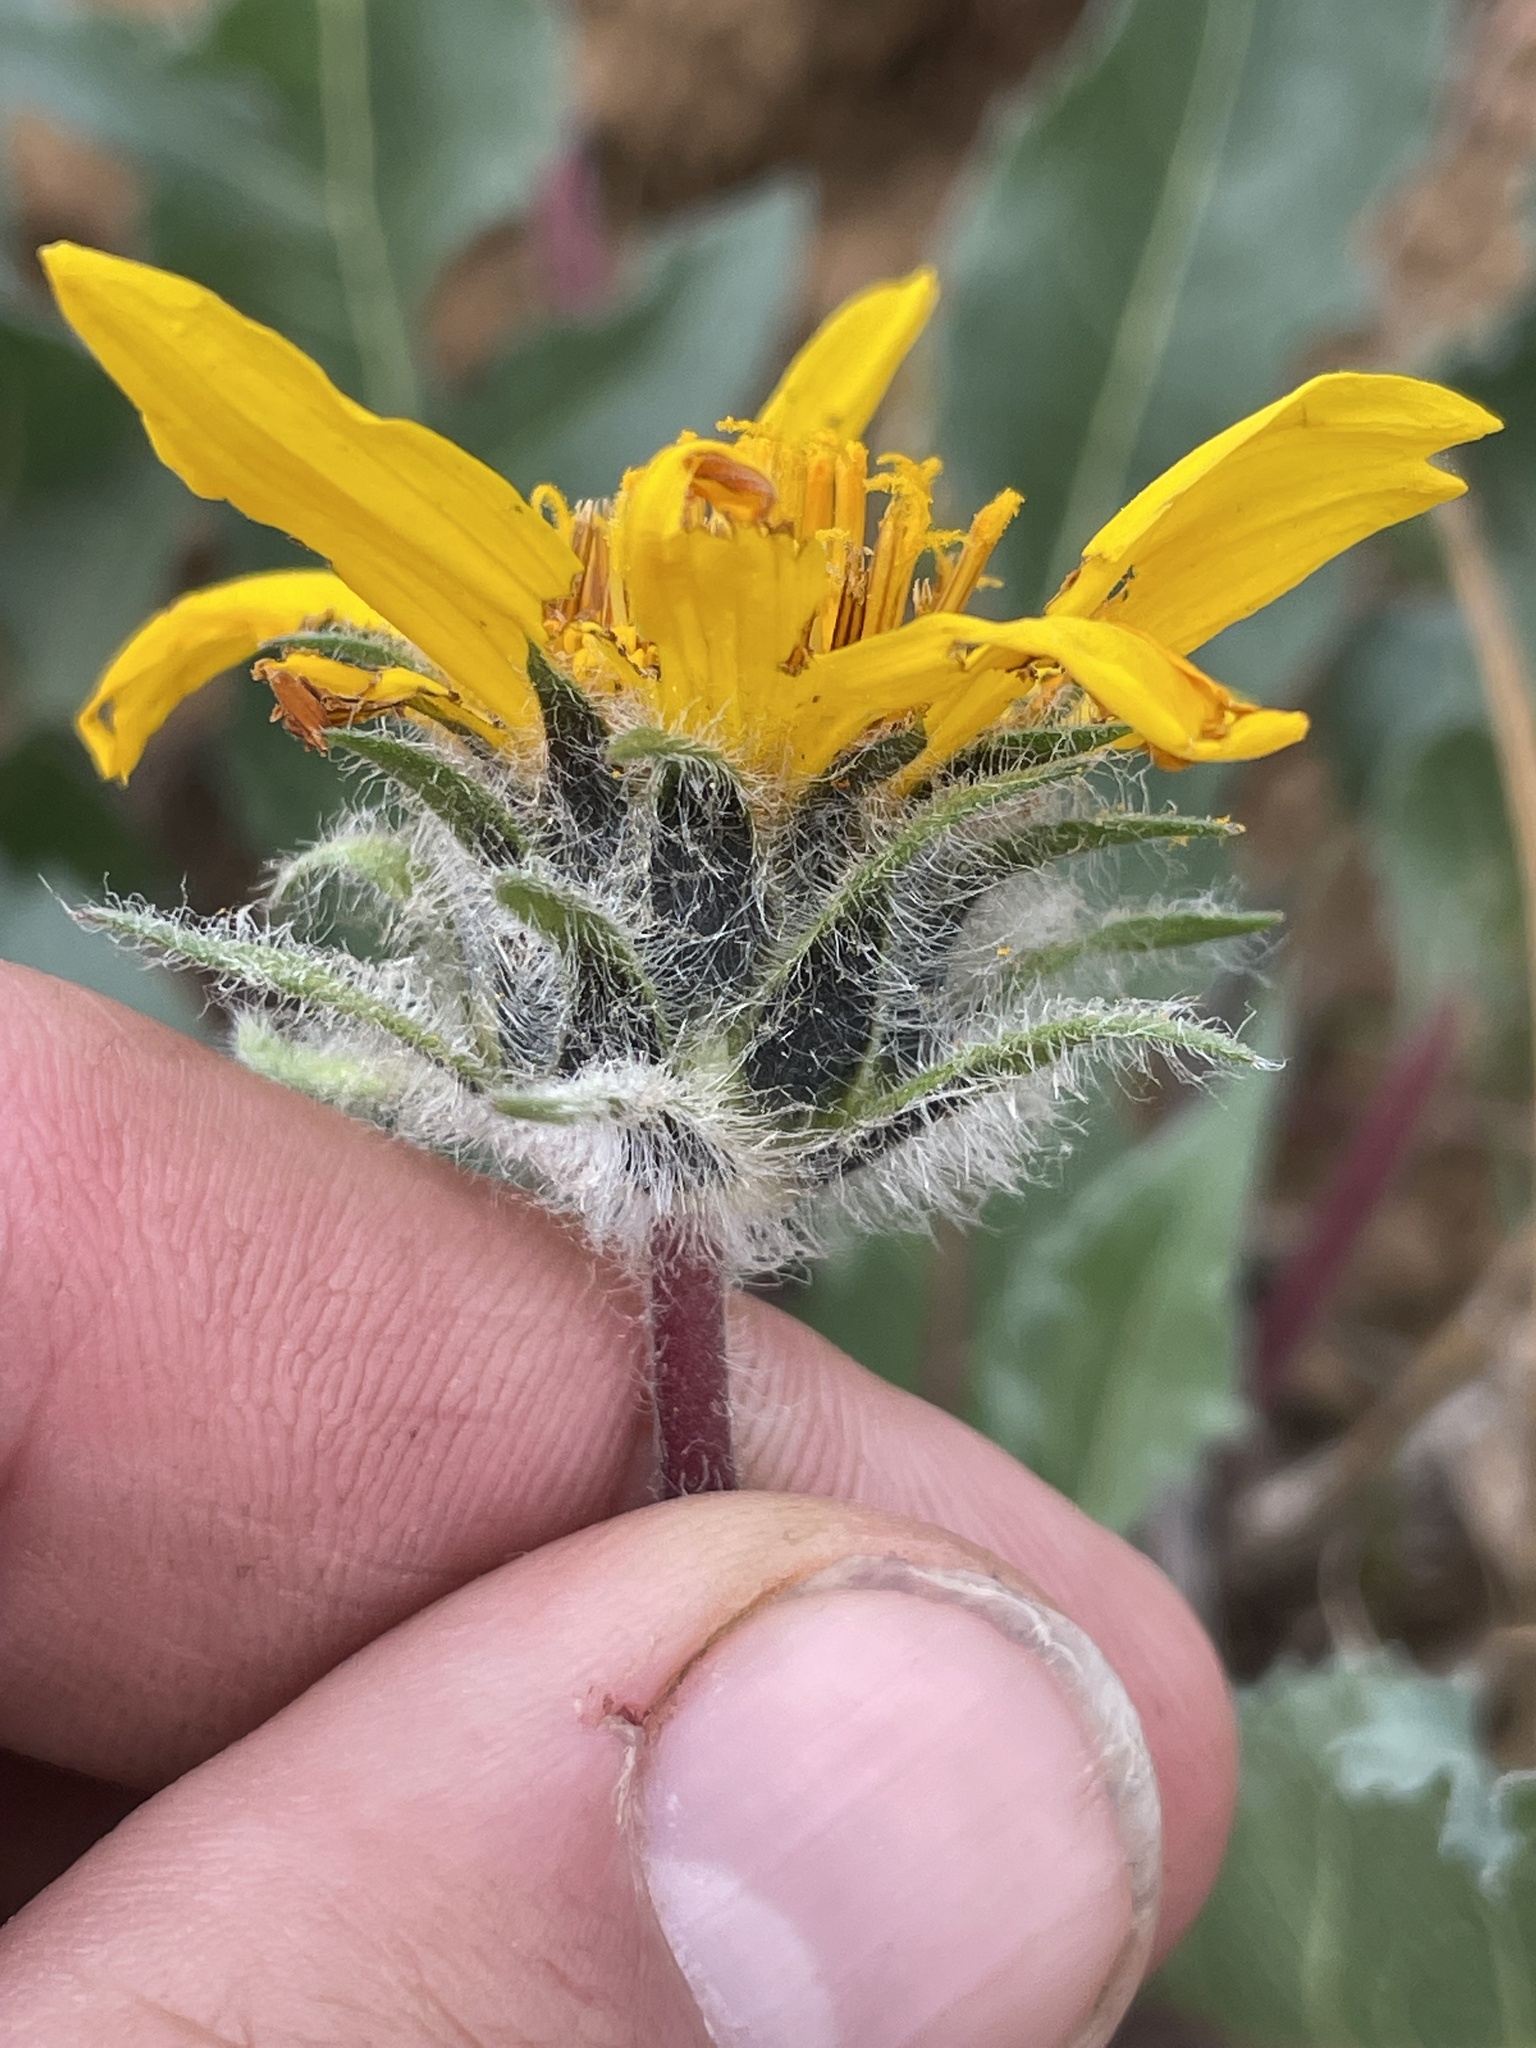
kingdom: Plantae
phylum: Tracheophyta
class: Magnoliopsida
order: Asterales
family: Asteraceae
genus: Balsamorhiza
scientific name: Balsamorhiza serrata
